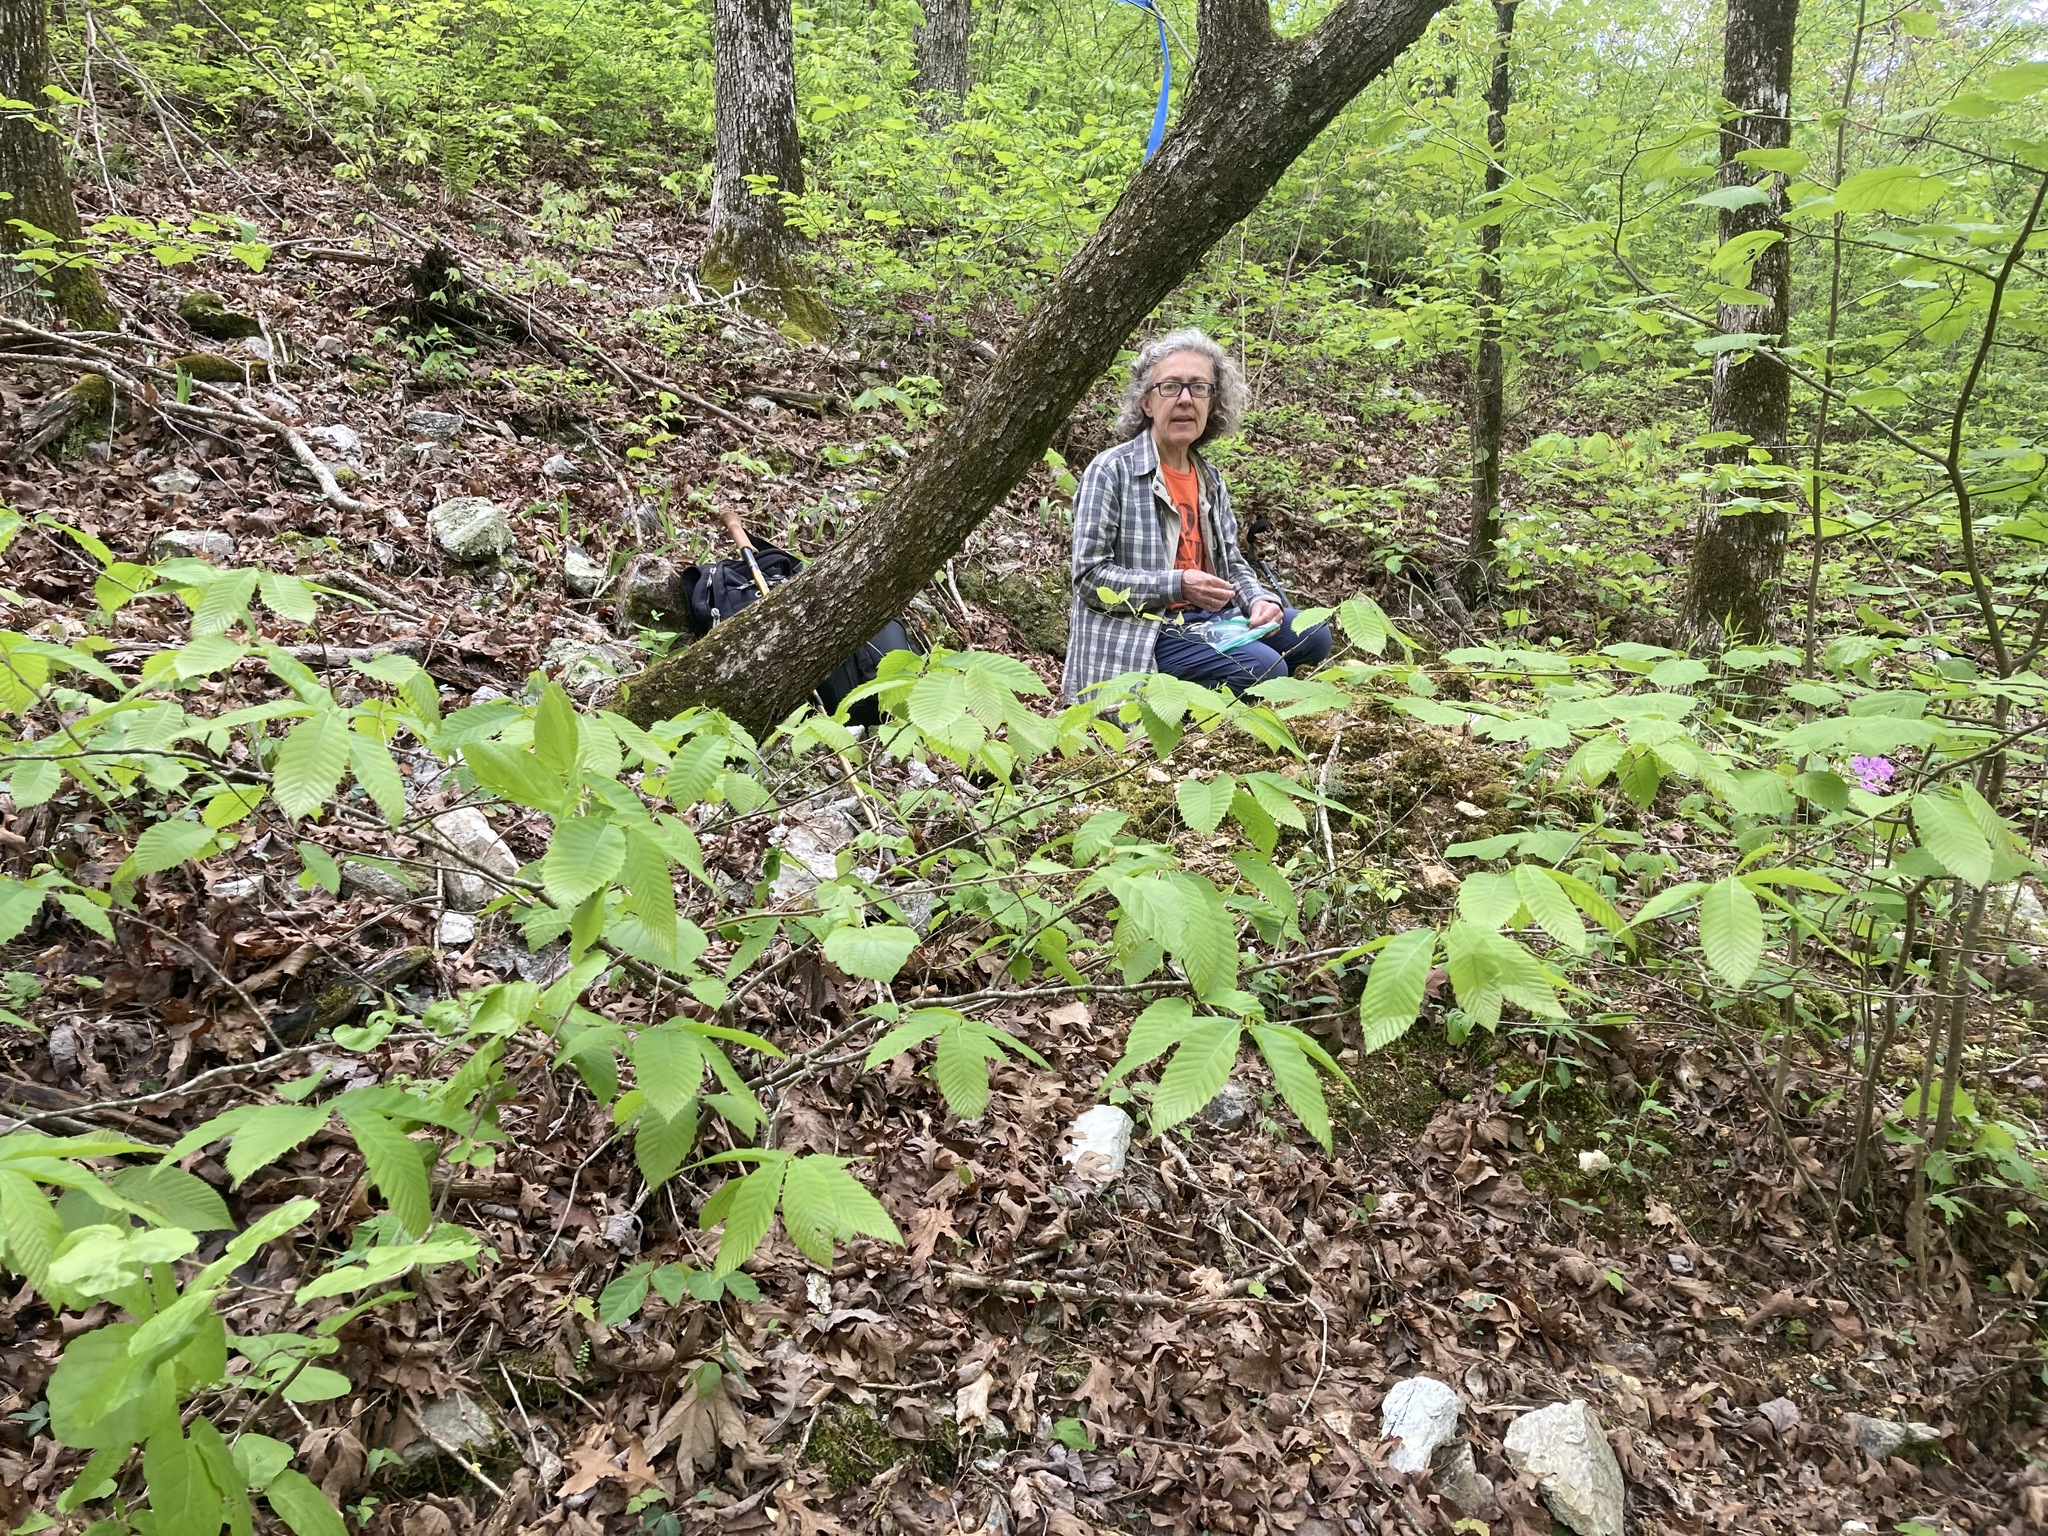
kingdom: Plantae
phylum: Tracheophyta
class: Magnoliopsida
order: Fagales
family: Fagaceae
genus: Castanea
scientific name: Castanea ozarkensis
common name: Ozark chinkapin
